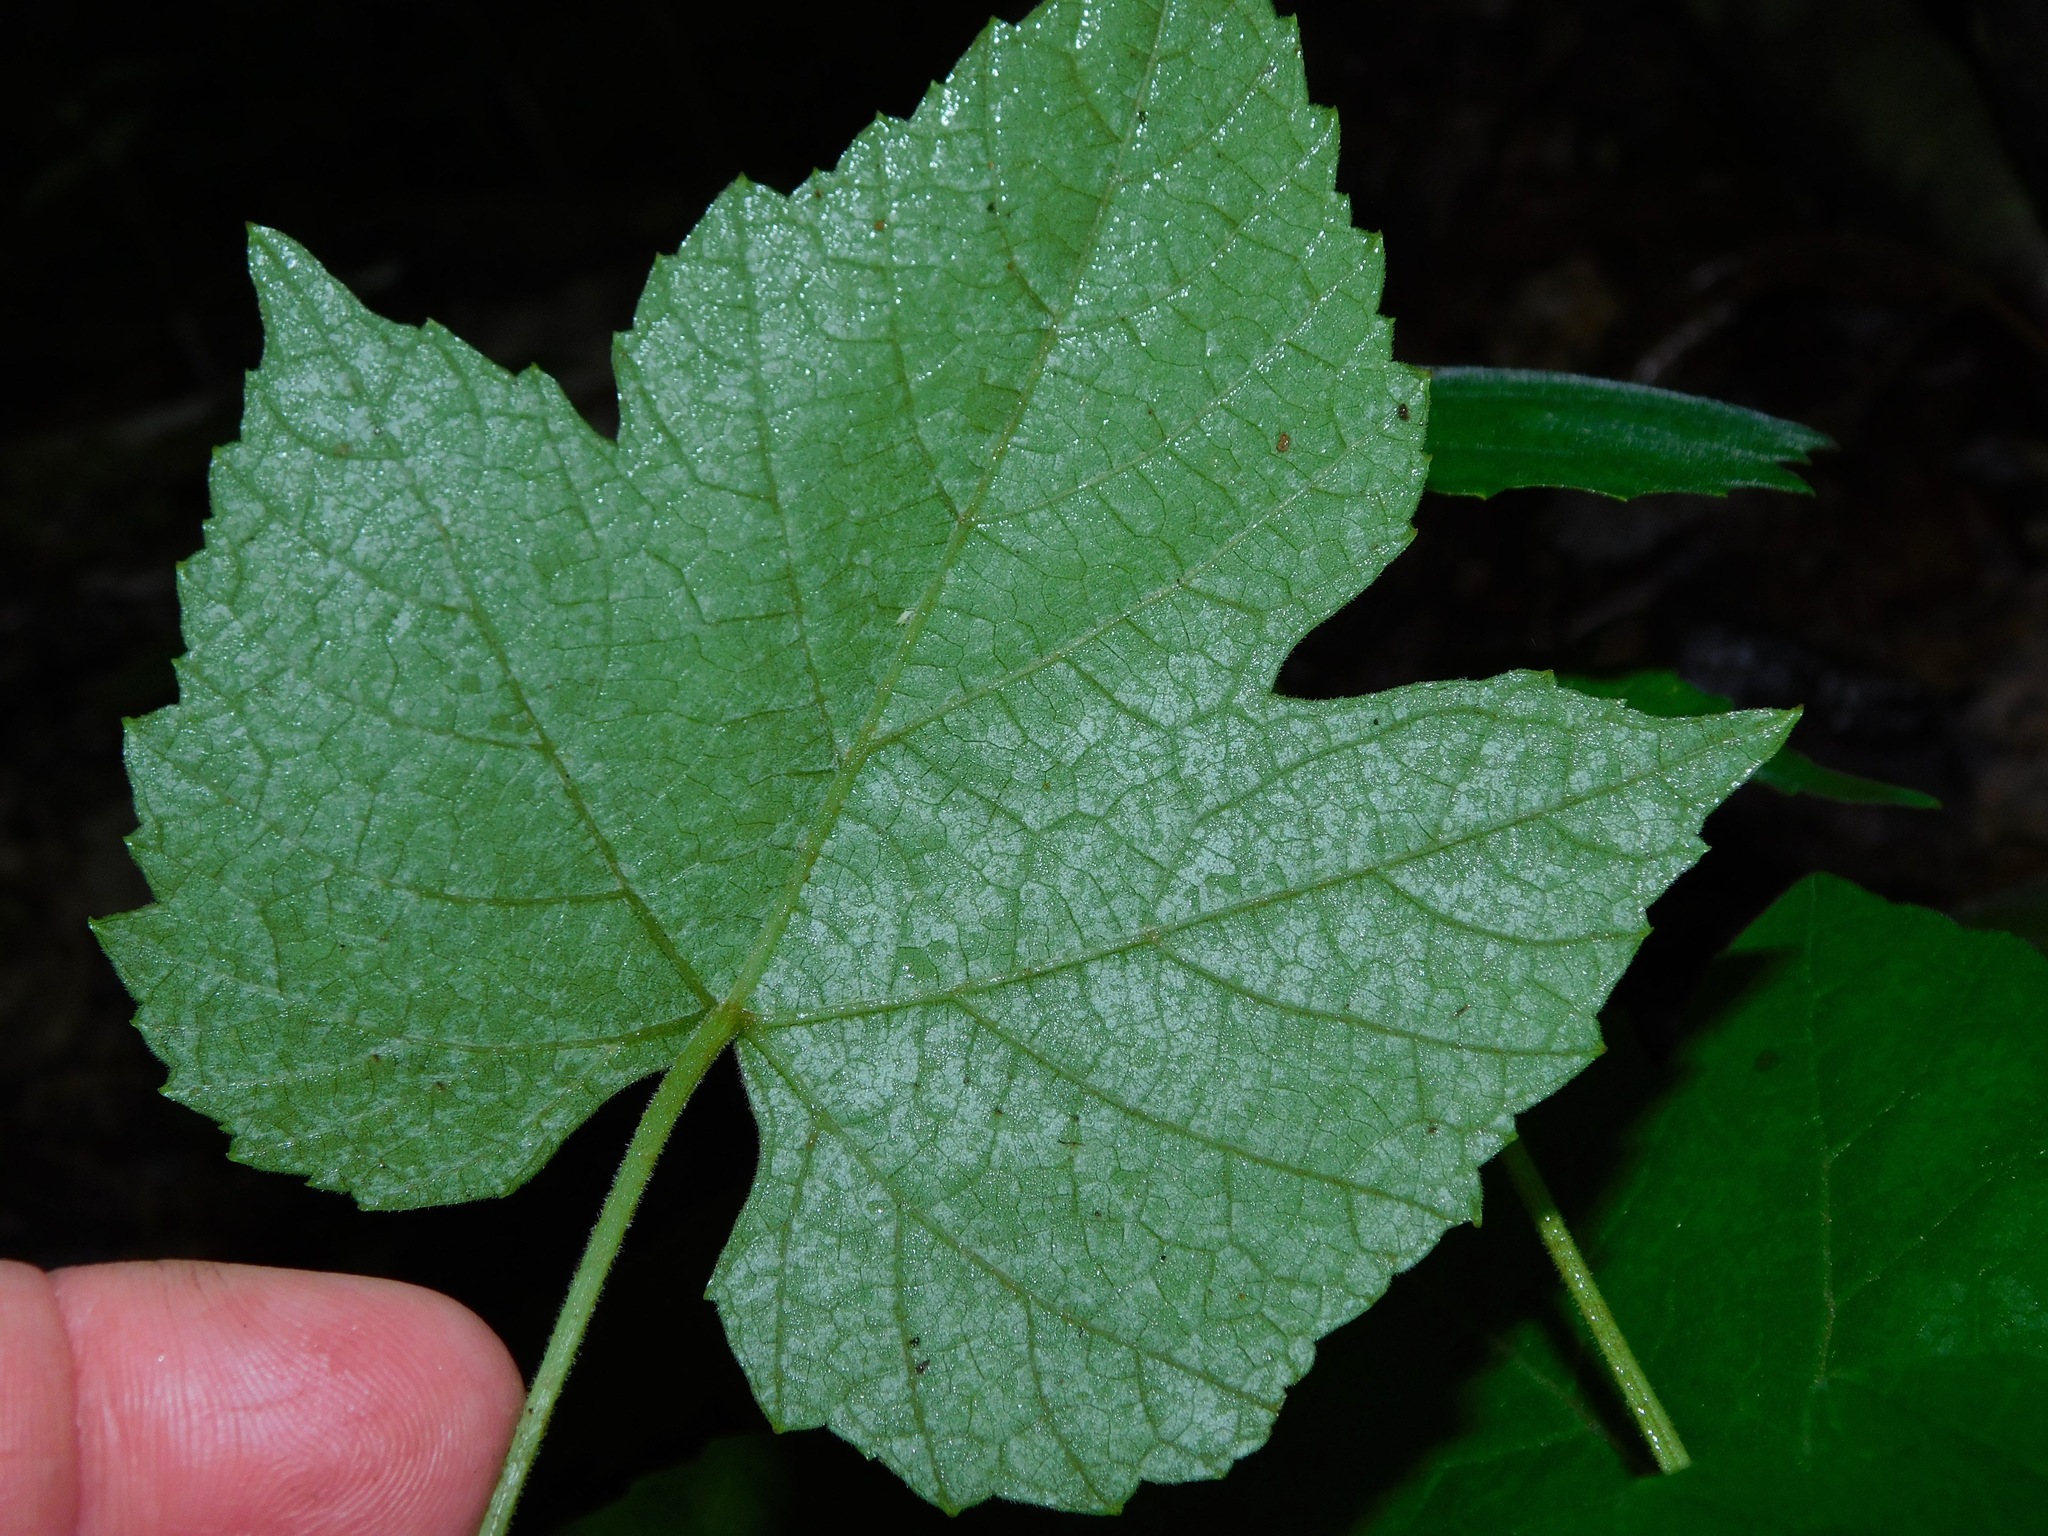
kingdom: Plantae
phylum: Tracheophyta
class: Magnoliopsida
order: Vitales
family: Vitaceae
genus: Vitis
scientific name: Vitis aestivalis
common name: Pigeon grape
